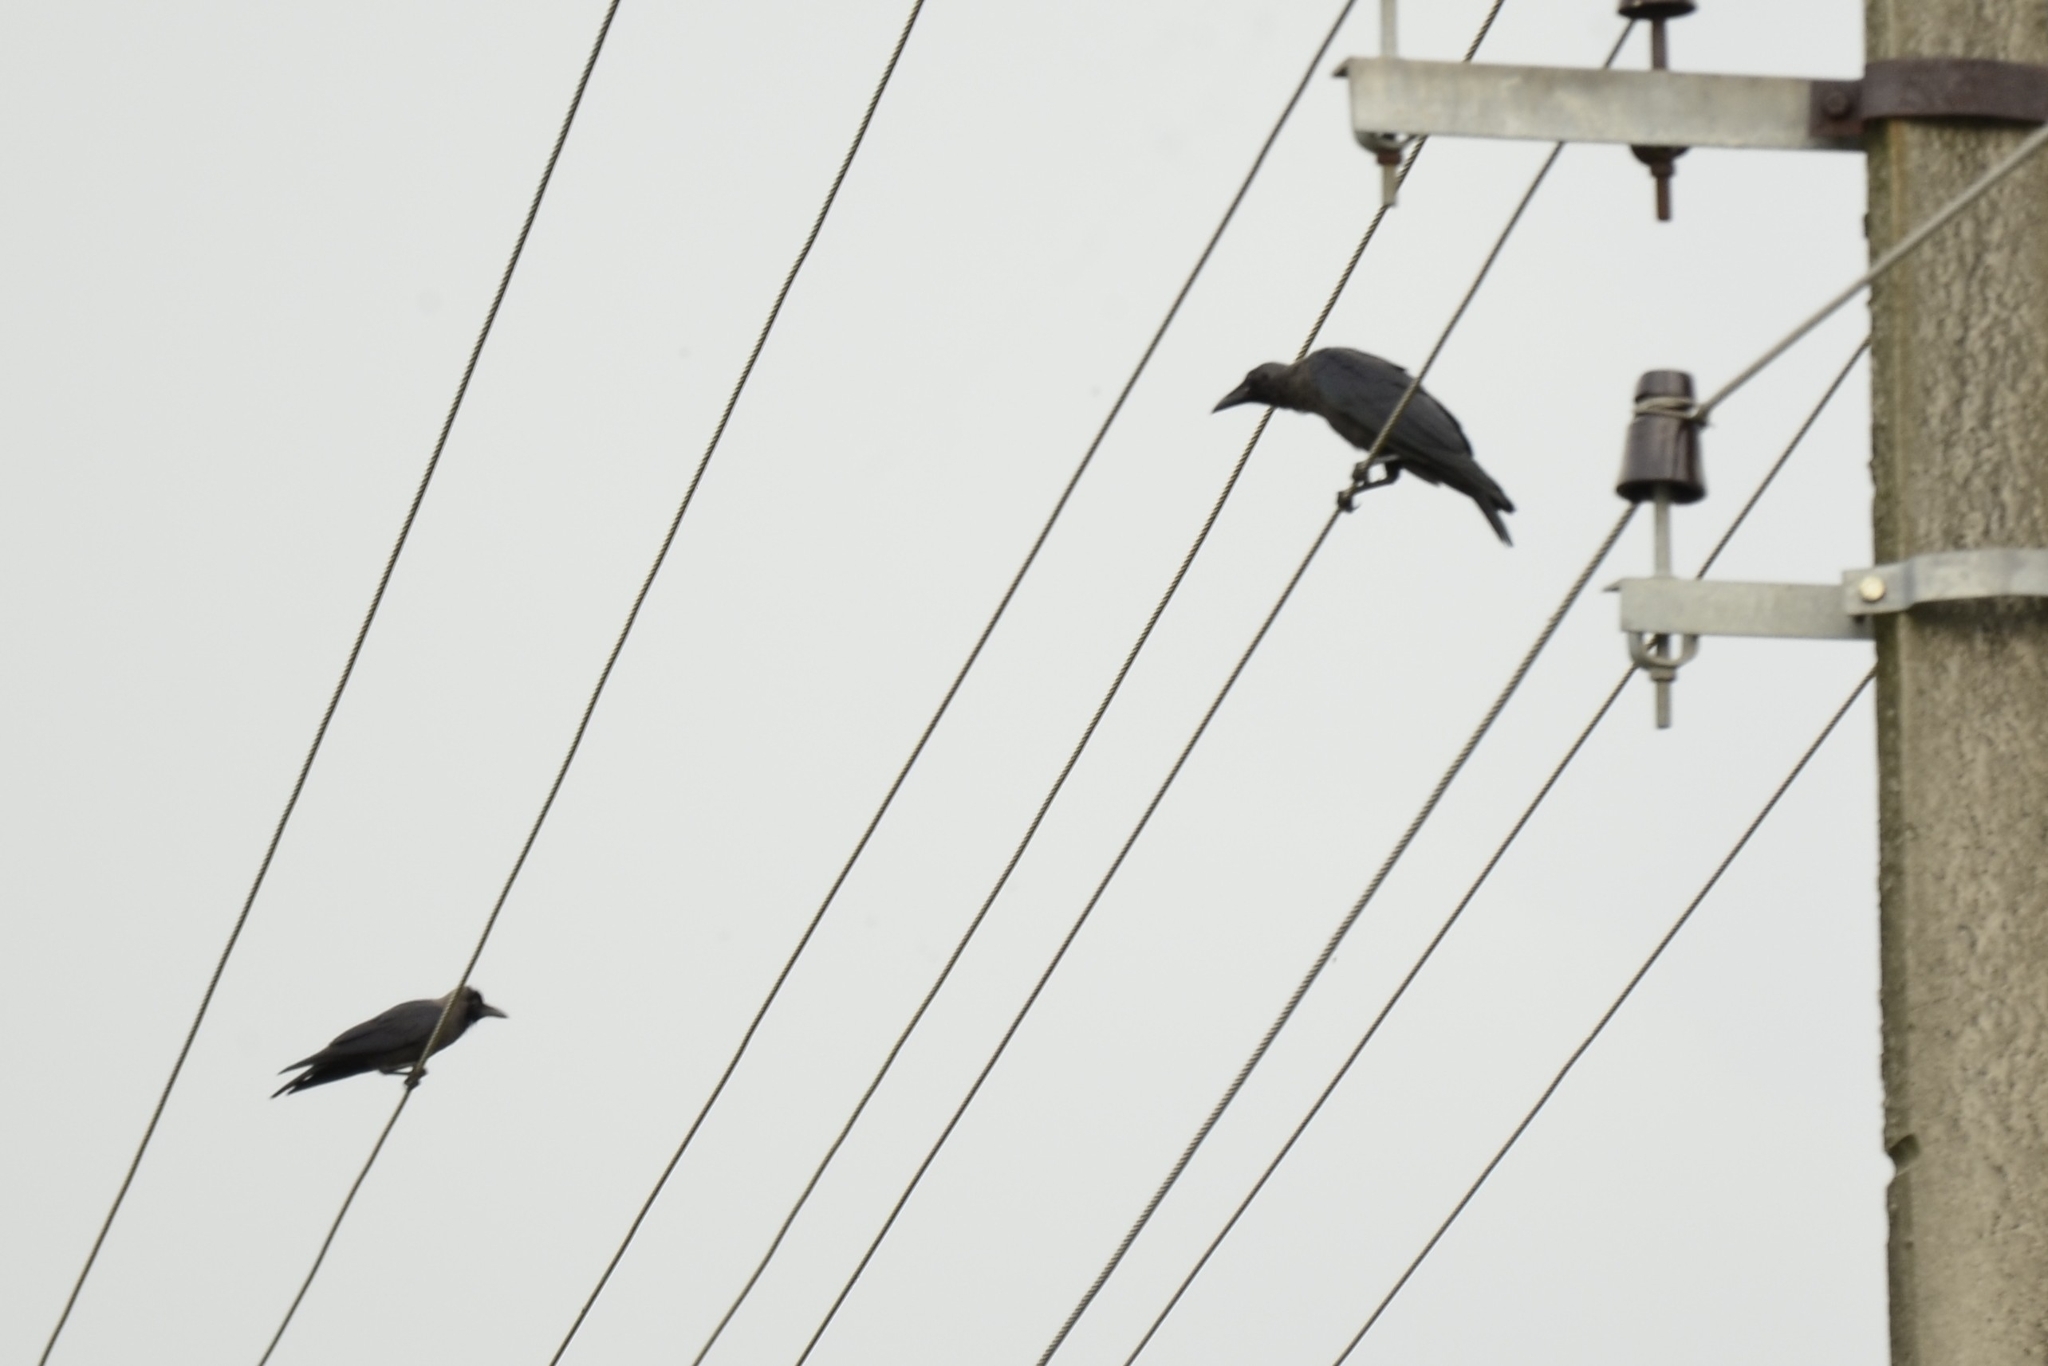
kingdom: Animalia
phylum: Chordata
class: Aves
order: Passeriformes
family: Corvidae
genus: Corvus
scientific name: Corvus splendens
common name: House crow
